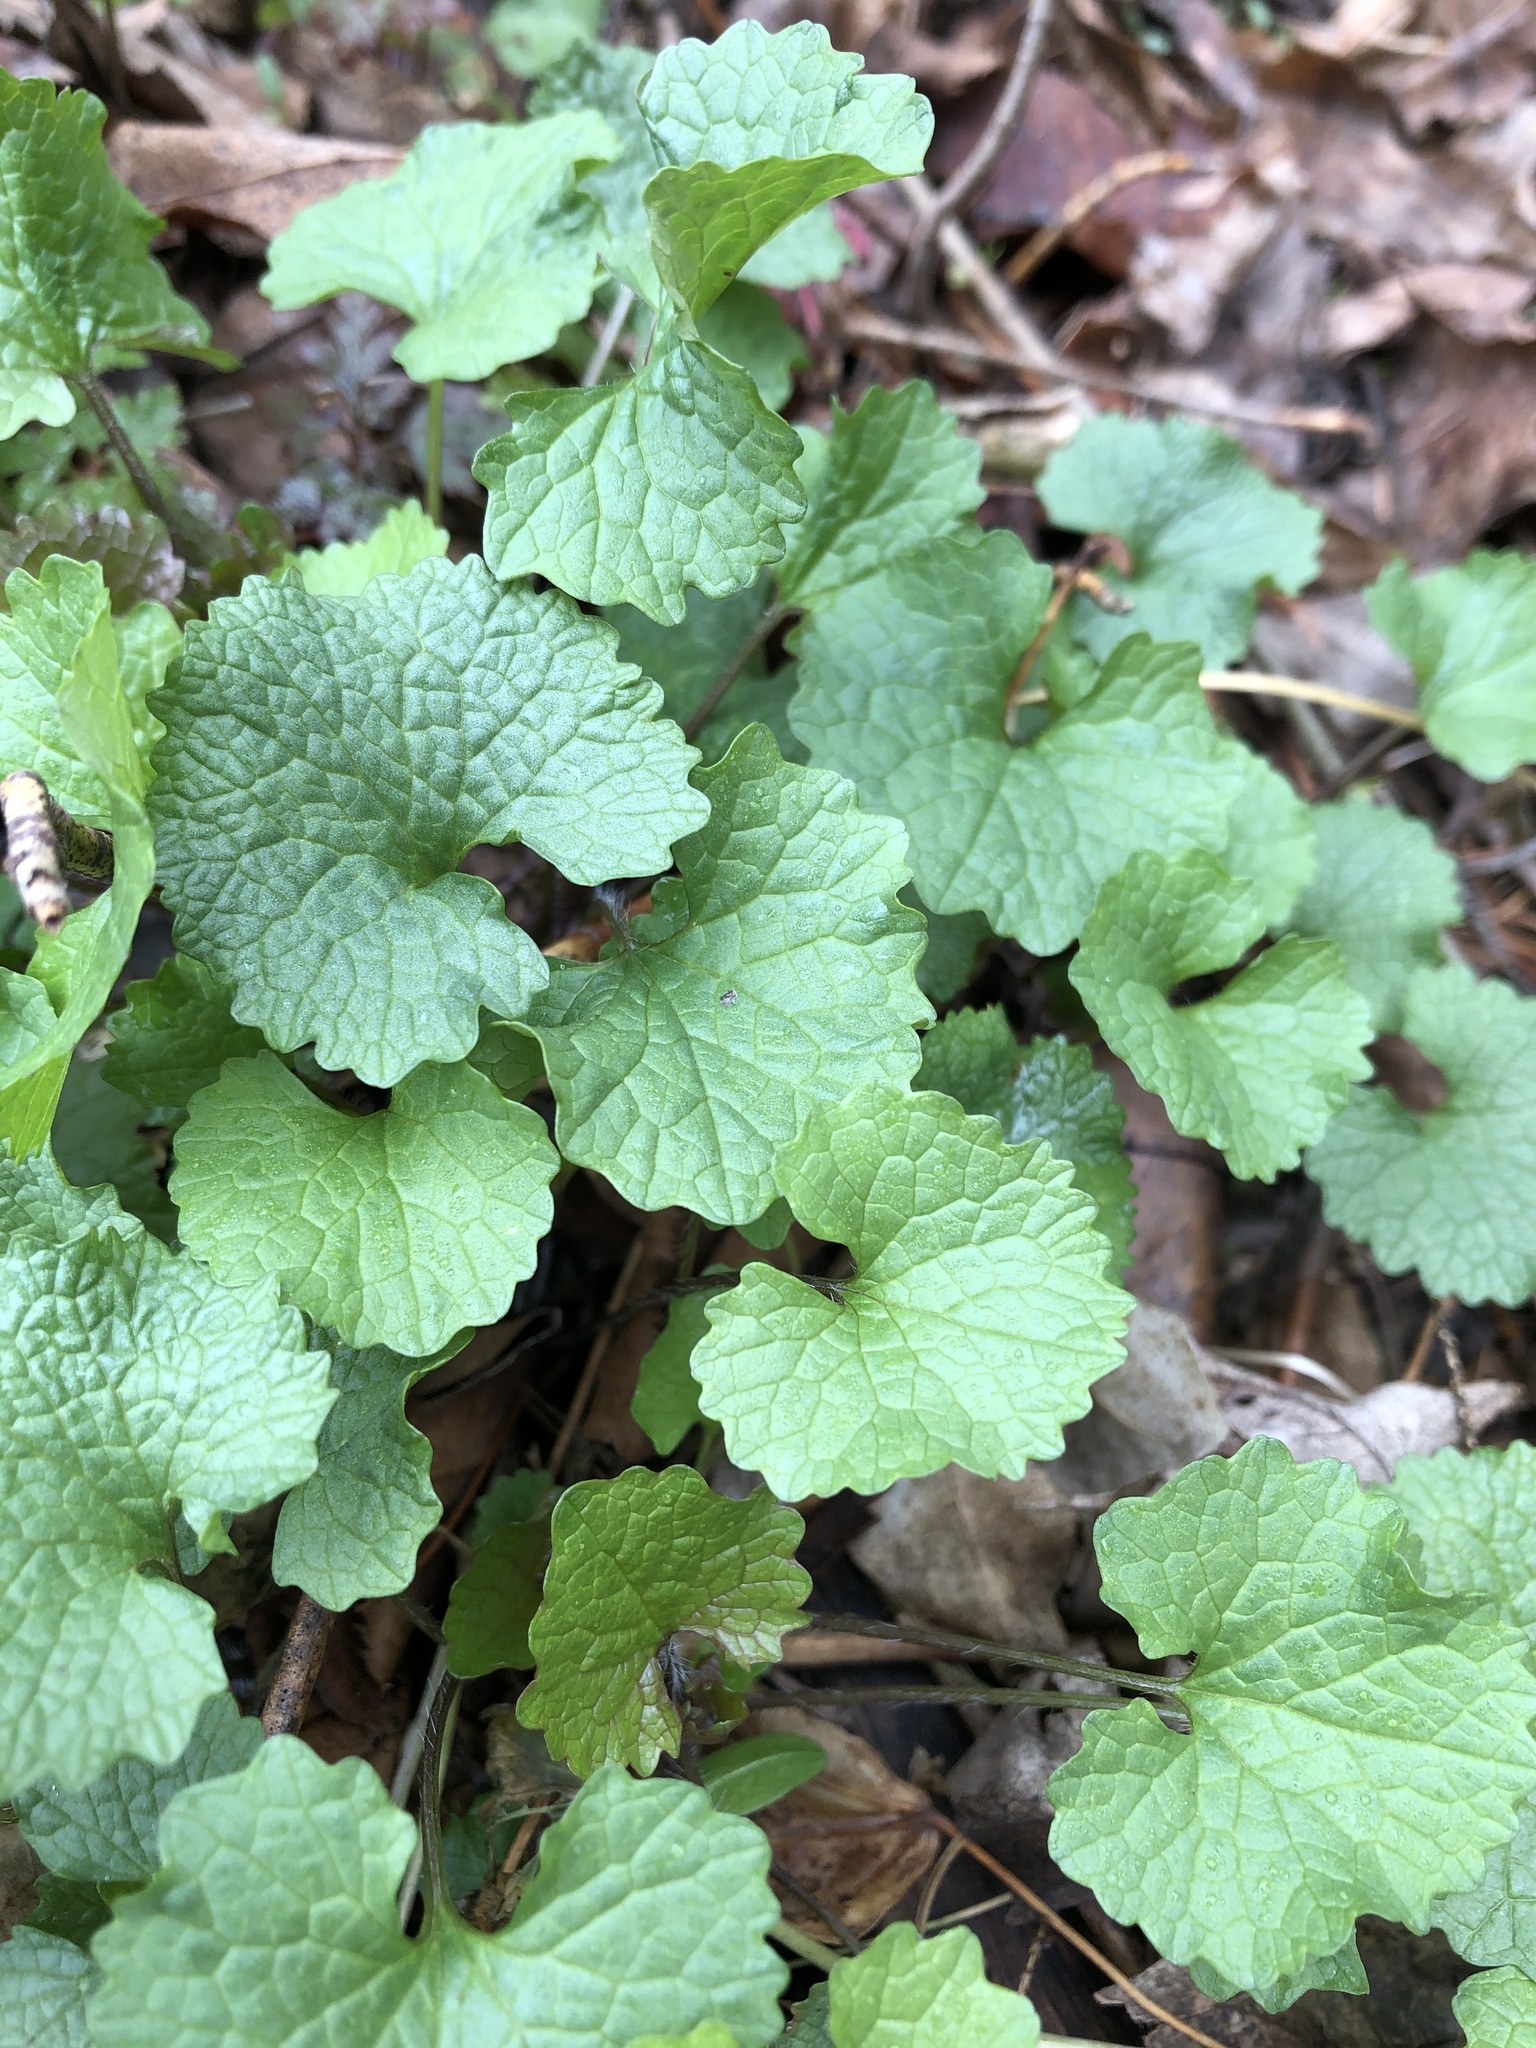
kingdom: Plantae
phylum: Tracheophyta
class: Magnoliopsida
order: Brassicales
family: Brassicaceae
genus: Alliaria
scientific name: Alliaria petiolata
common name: Garlic mustard
